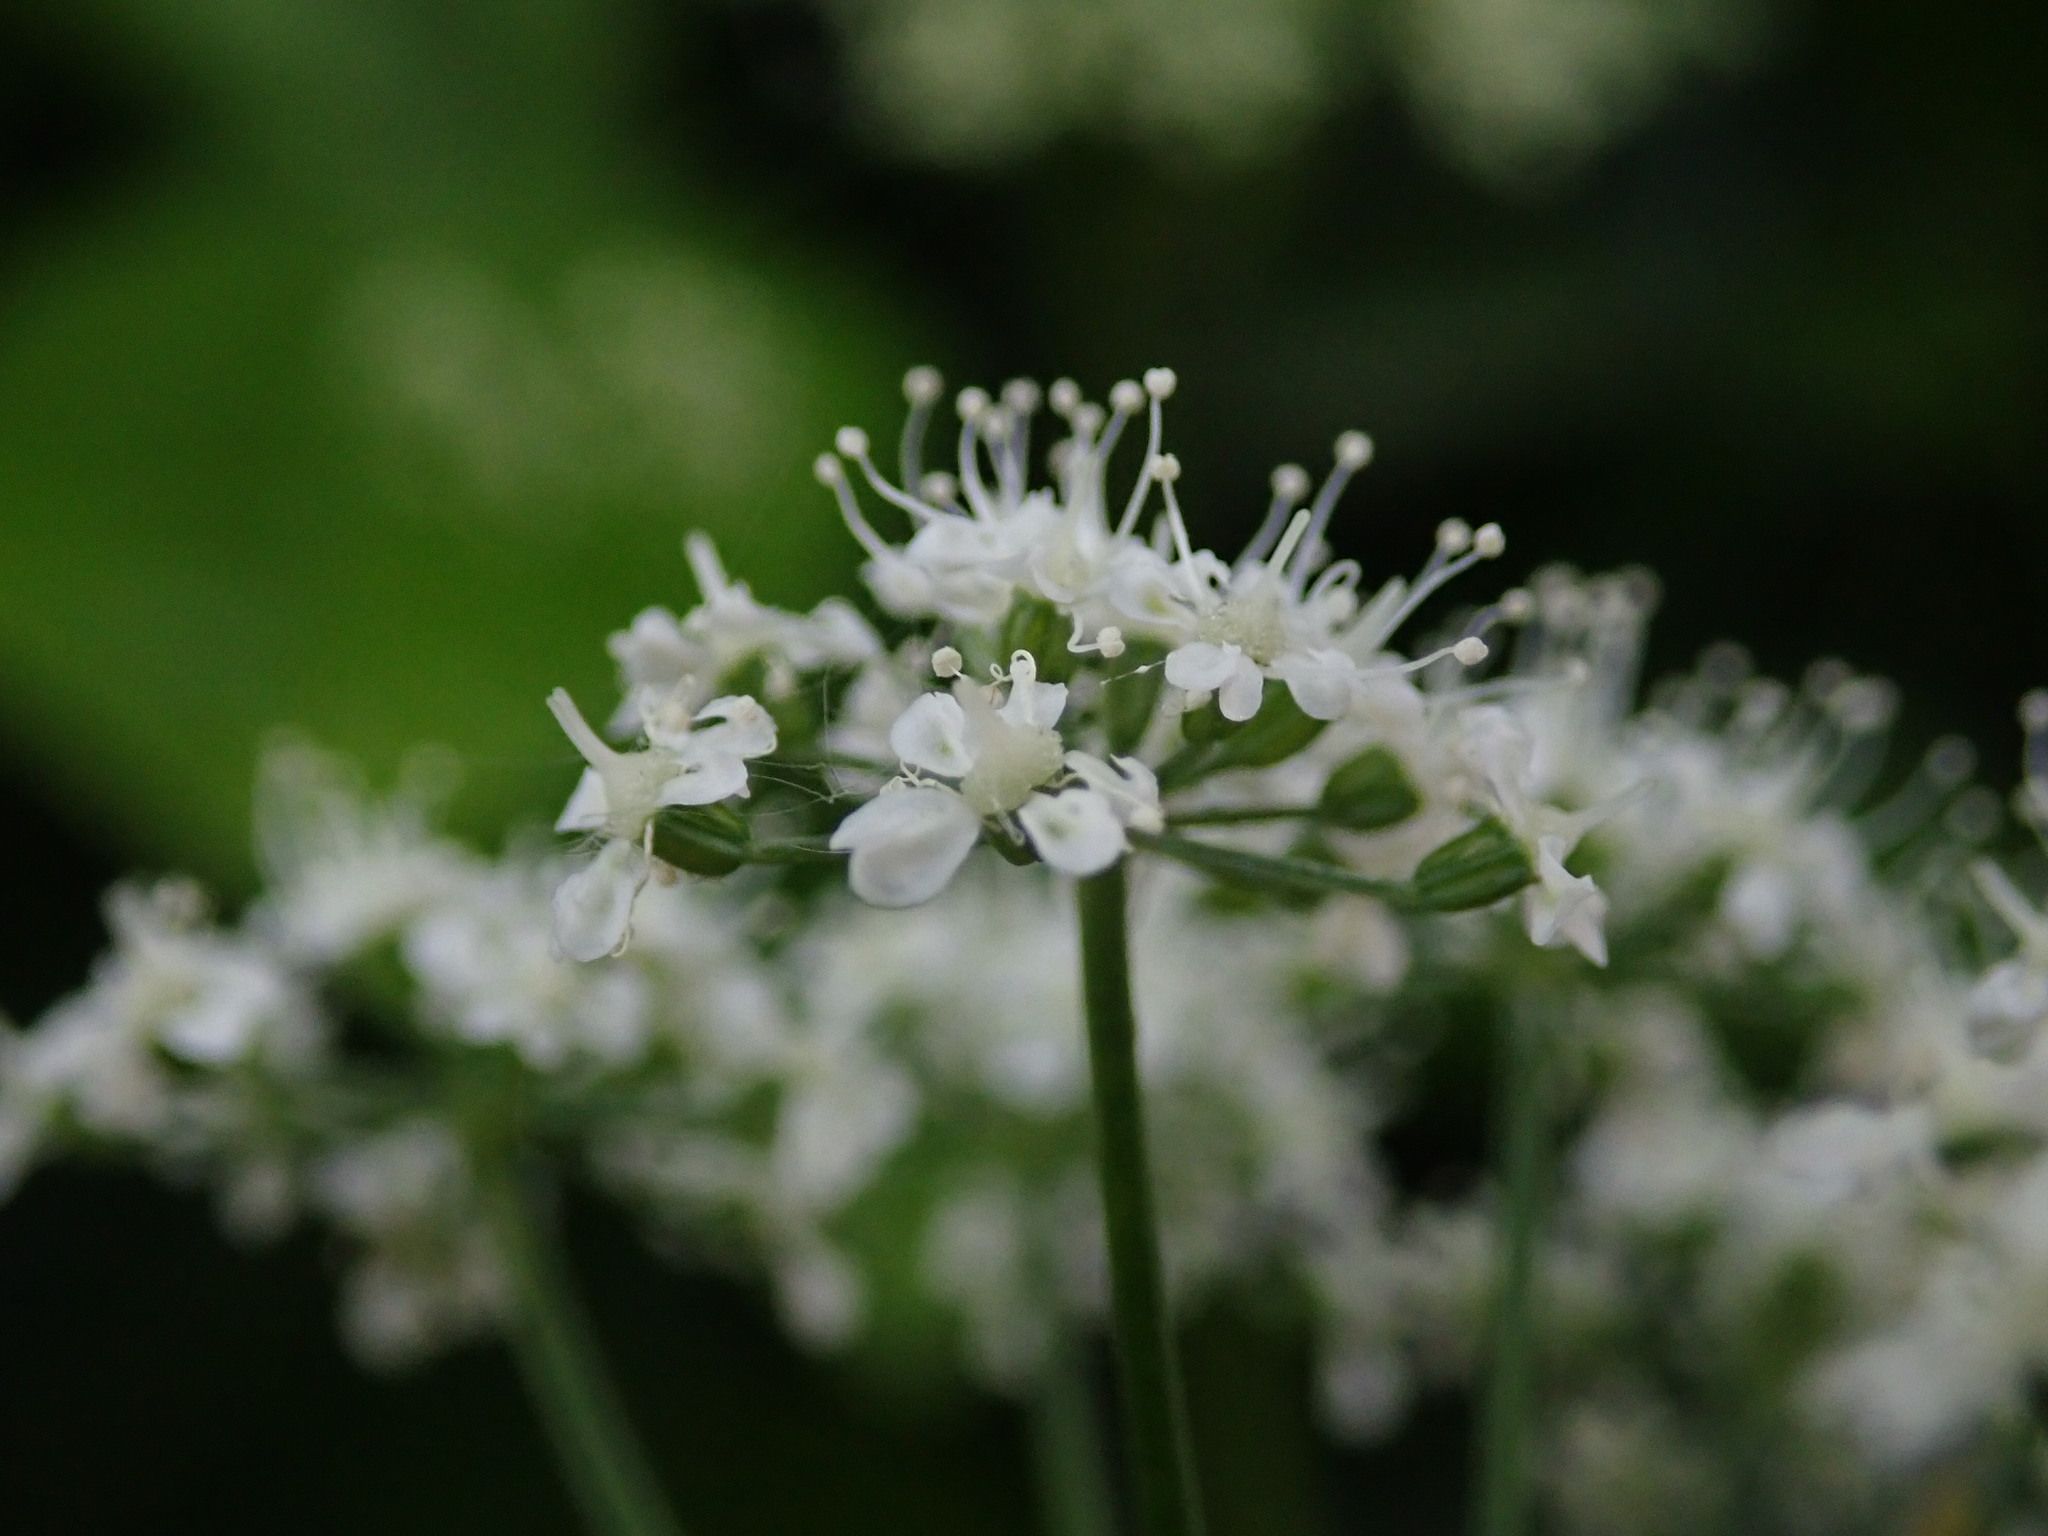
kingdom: Plantae
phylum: Tracheophyta
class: Magnoliopsida
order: Apiales
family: Apiaceae
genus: Aegopodium
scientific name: Aegopodium podagraria
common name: Ground-elder
